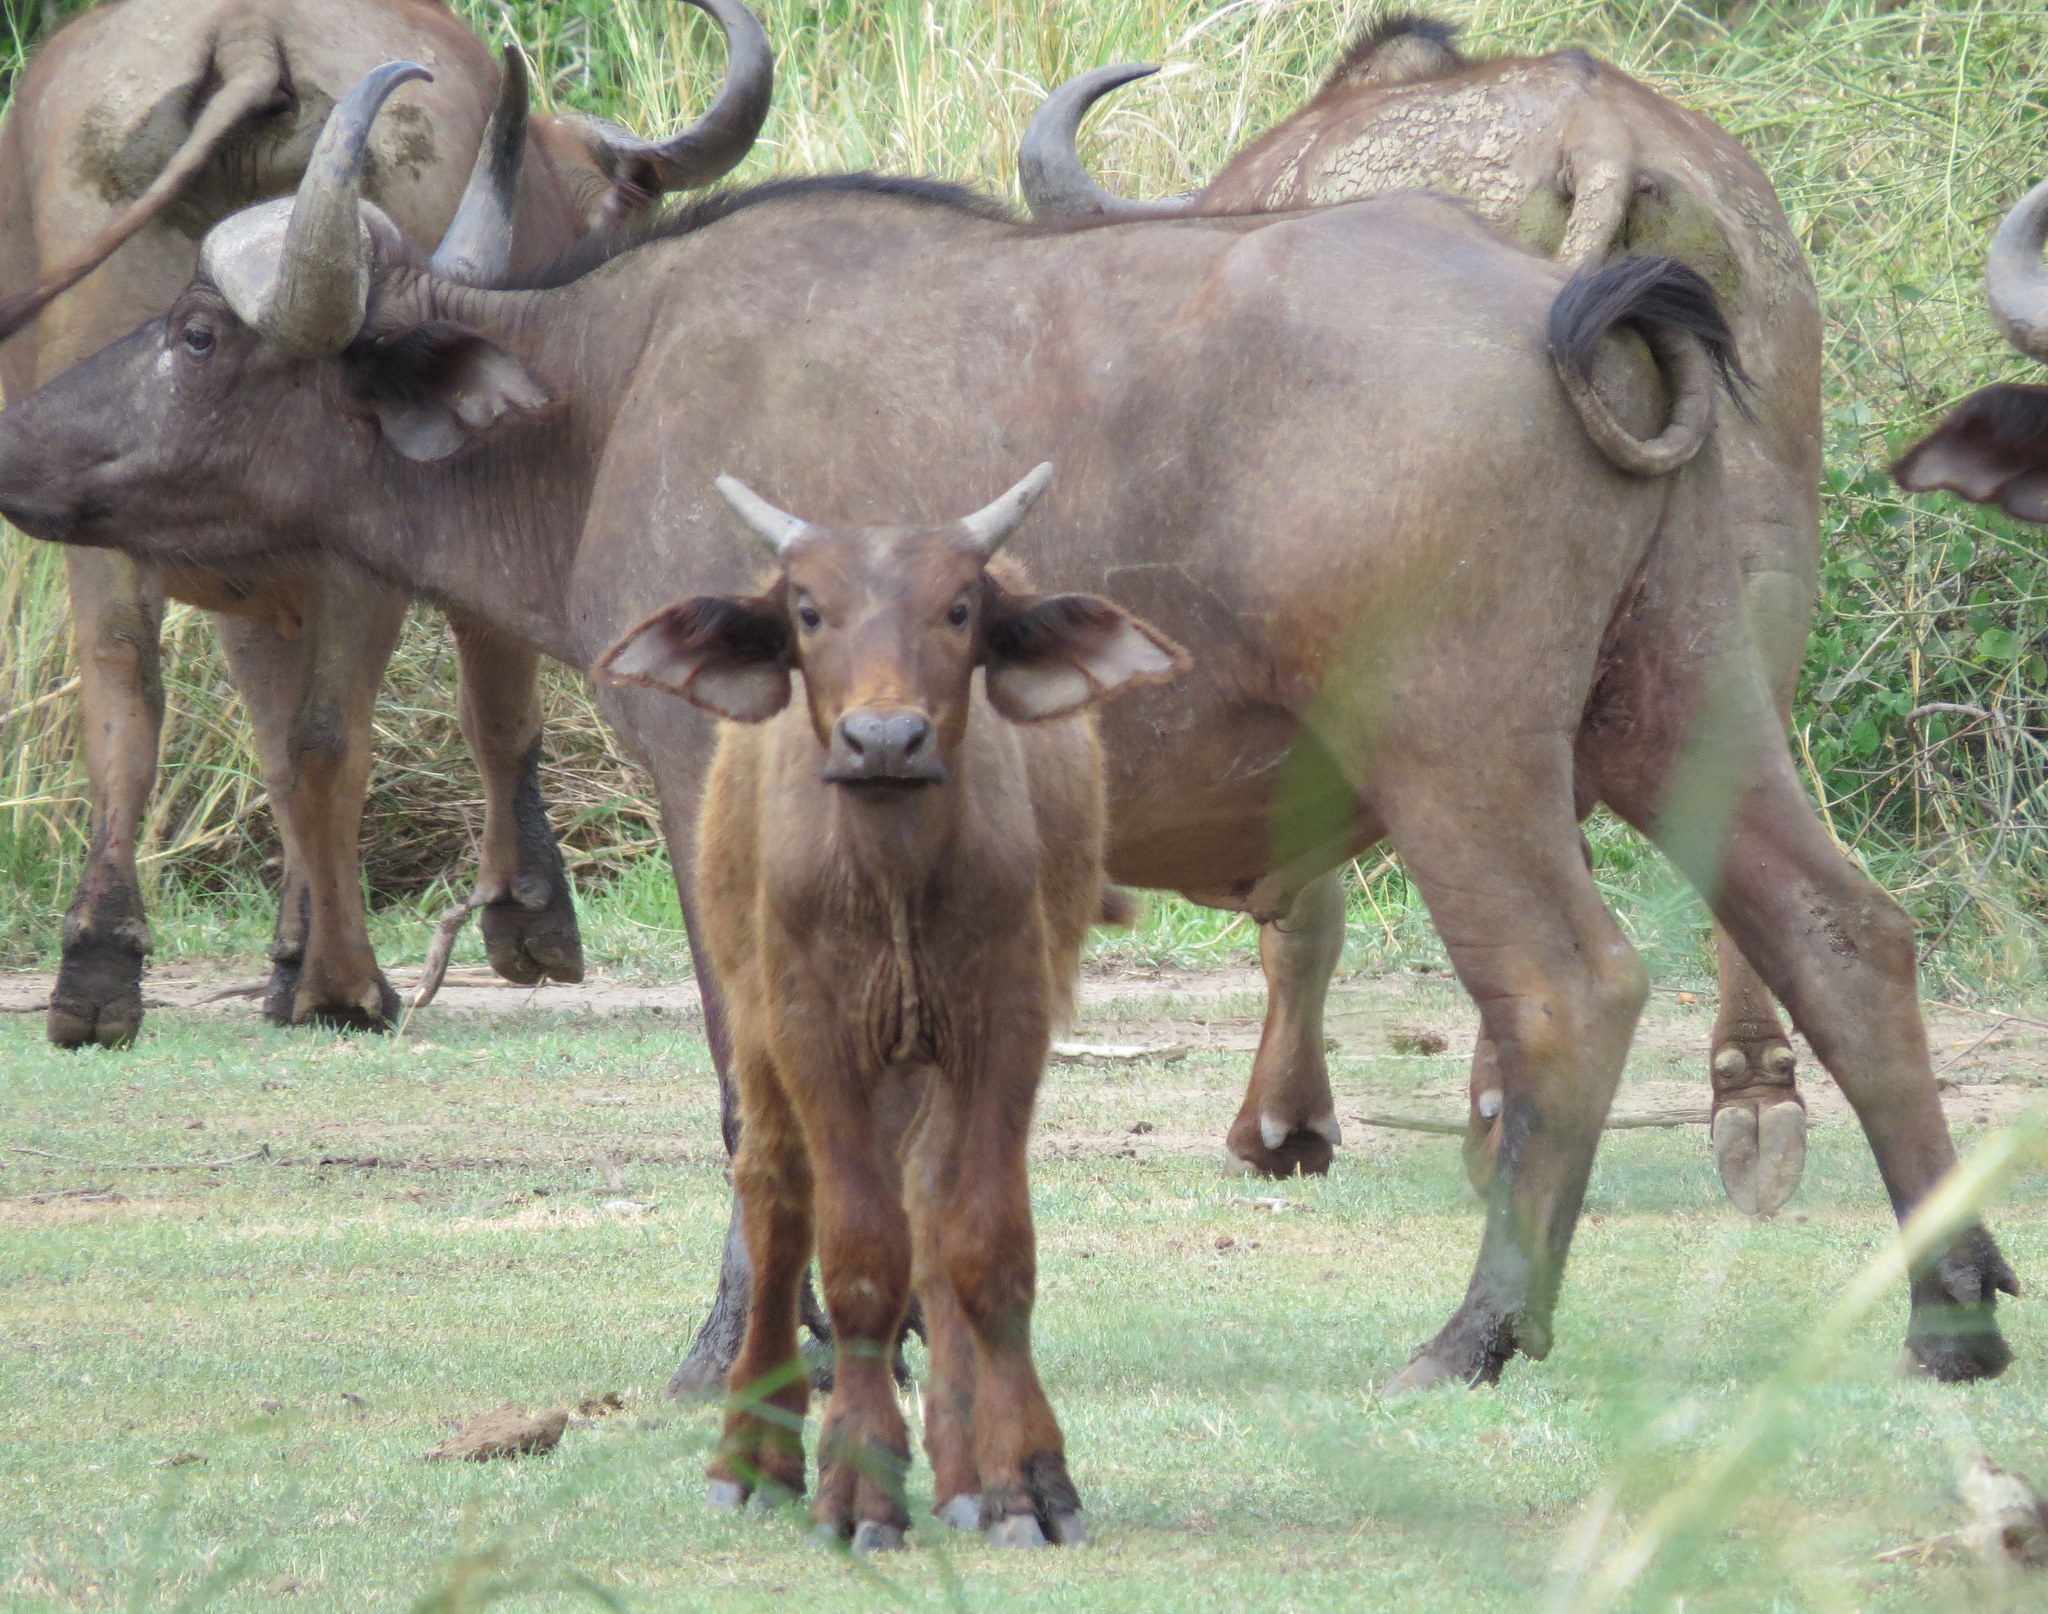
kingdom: Animalia
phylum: Chordata
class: Mammalia
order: Artiodactyla
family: Bovidae
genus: Syncerus
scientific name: Syncerus caffer
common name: African buffalo
